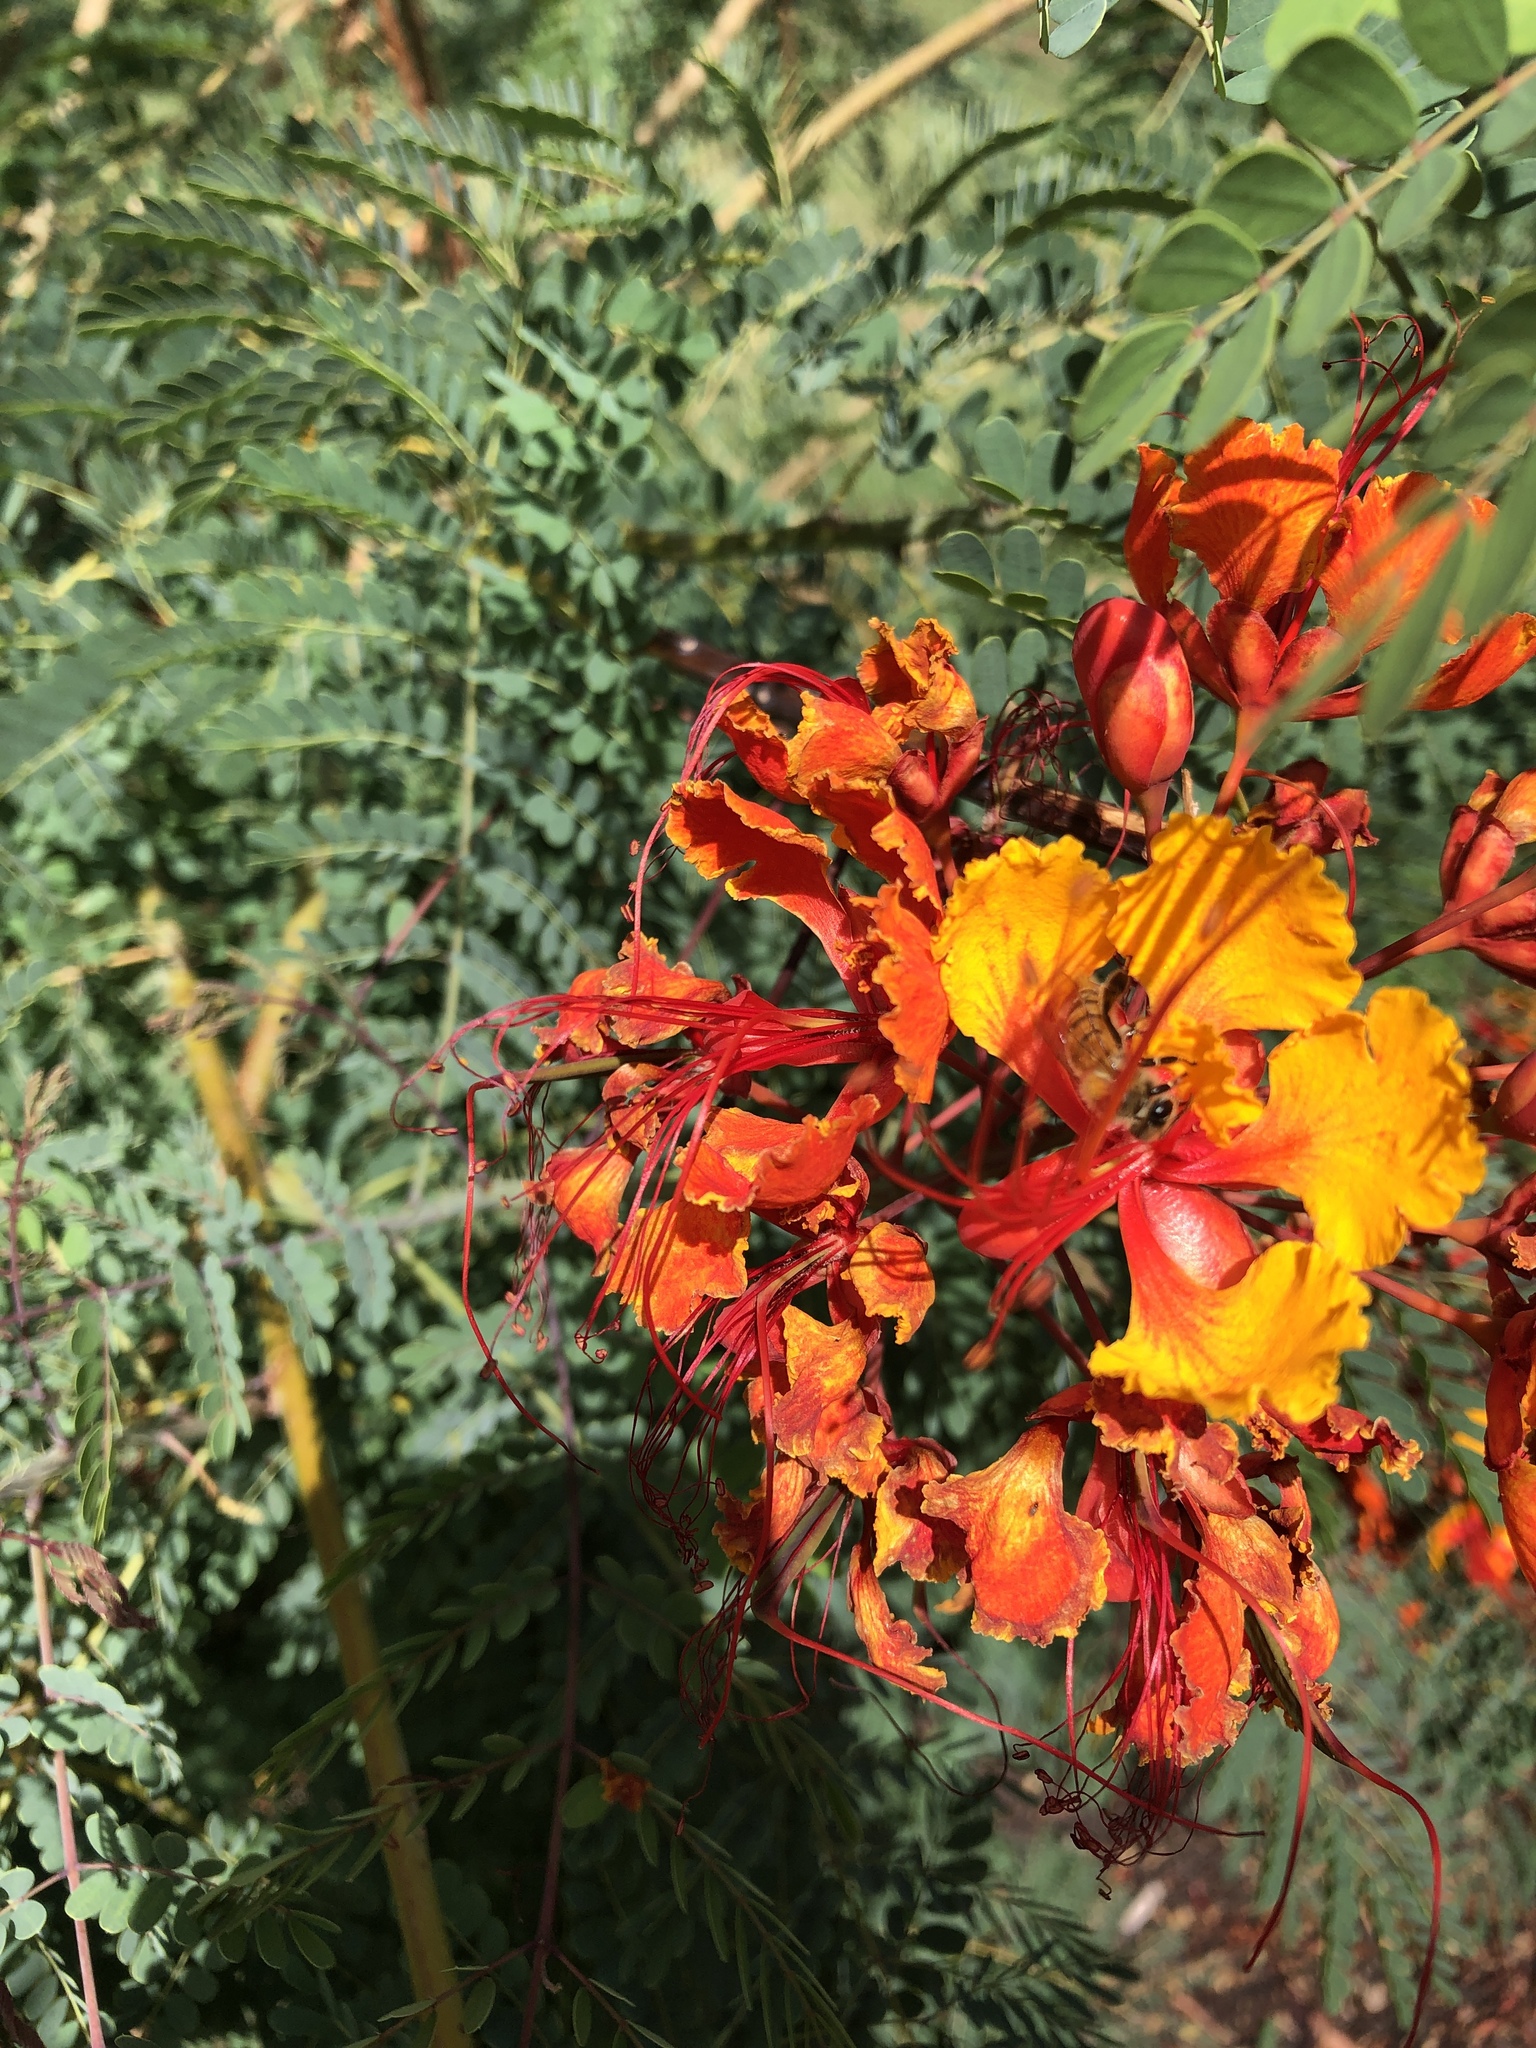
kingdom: Animalia
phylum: Arthropoda
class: Insecta
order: Hymenoptera
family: Apidae
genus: Apis
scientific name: Apis mellifera
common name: Honey bee
